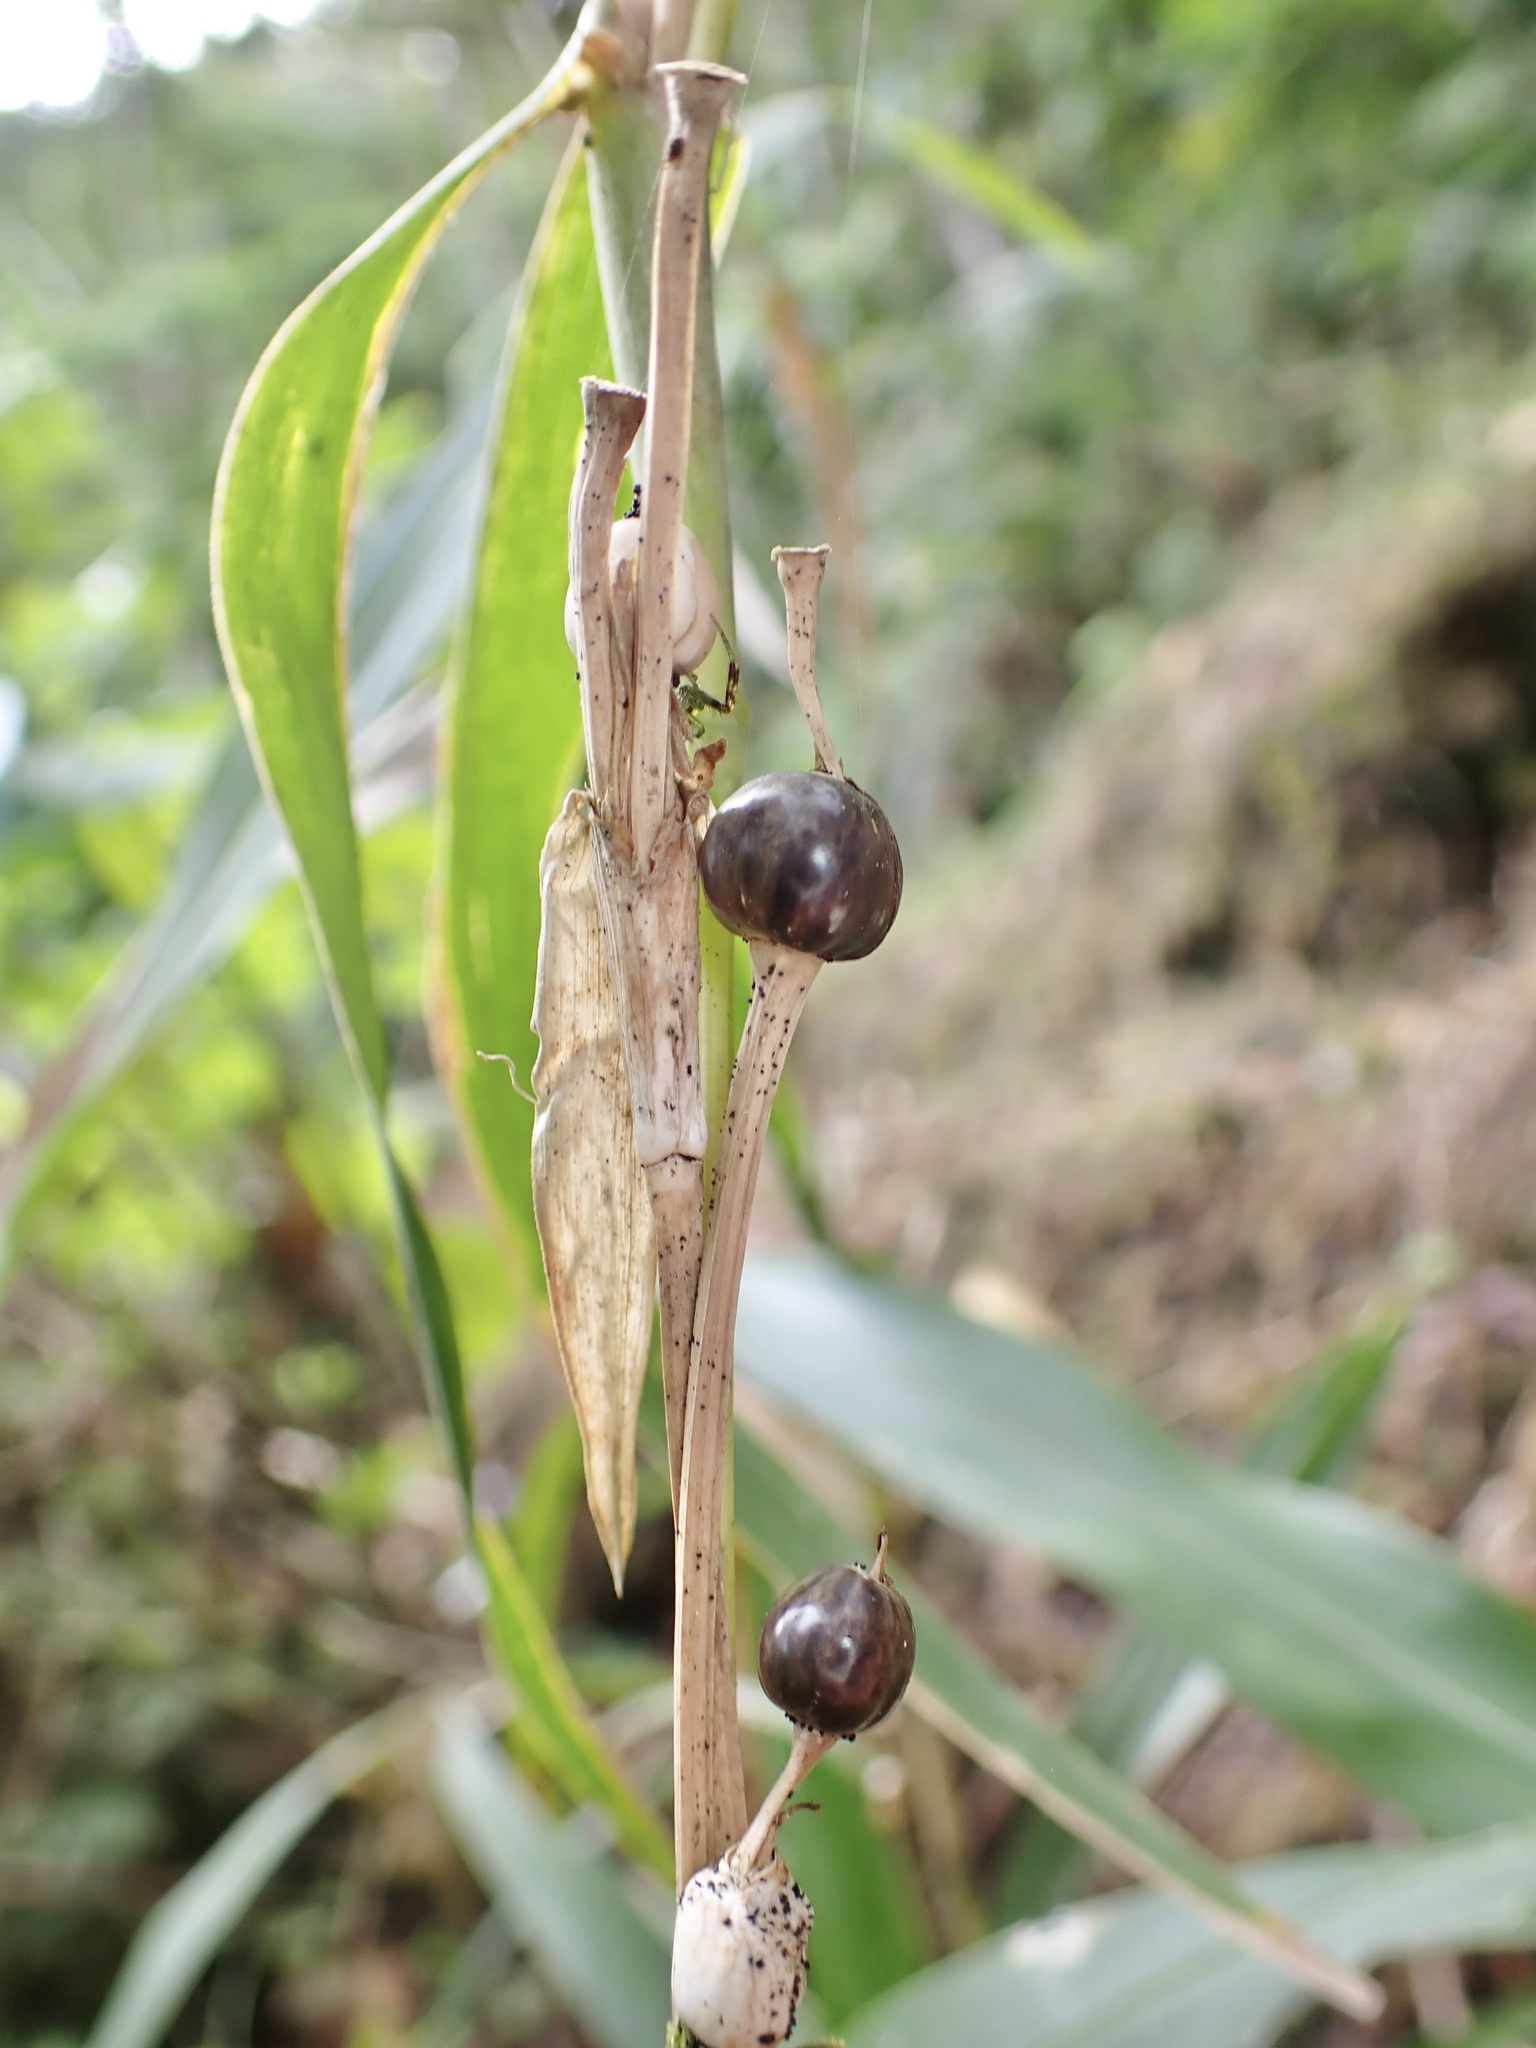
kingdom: Plantae
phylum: Tracheophyta
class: Liliopsida
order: Poales
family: Poaceae
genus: Coix
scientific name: Coix lacryma-jobi
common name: Job's tears
